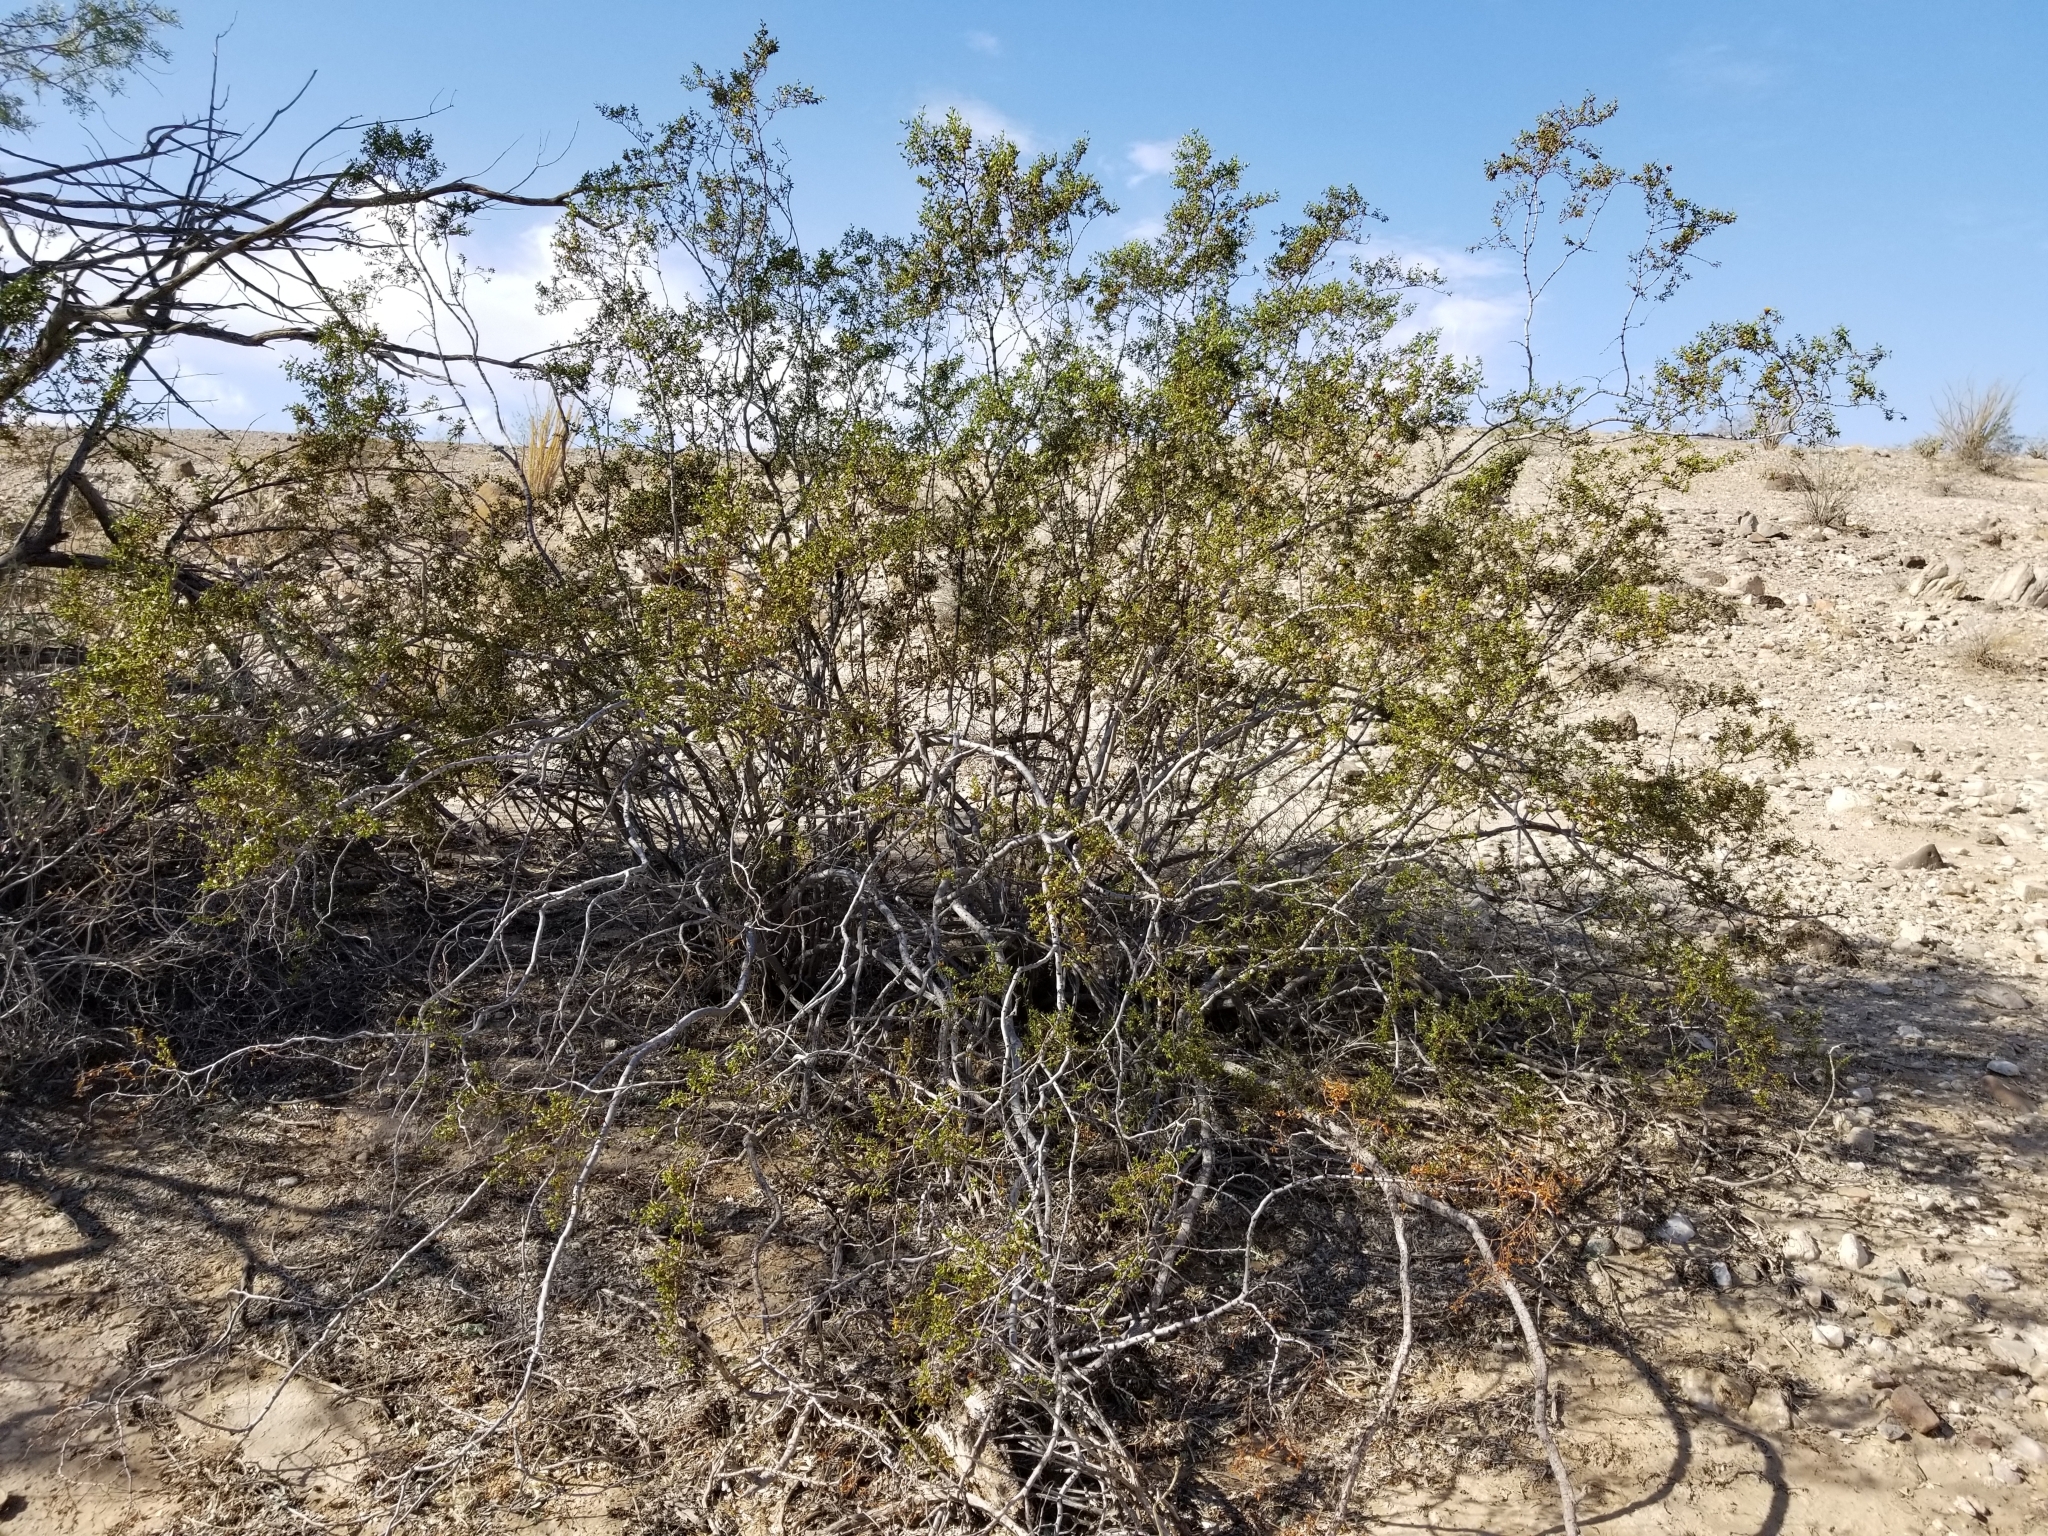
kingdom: Plantae
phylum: Tracheophyta
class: Magnoliopsida
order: Zygophyllales
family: Zygophyllaceae
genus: Larrea
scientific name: Larrea tridentata
